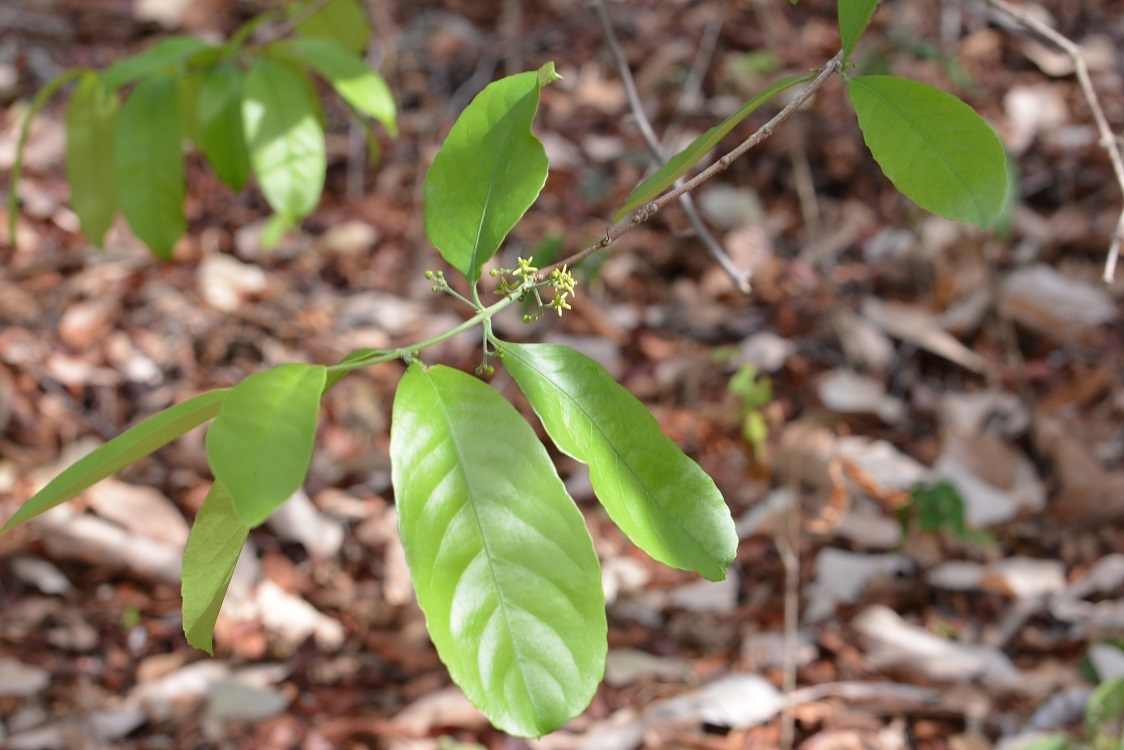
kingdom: Plantae
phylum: Tracheophyta
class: Magnoliopsida
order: Celastrales
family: Celastraceae
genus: Semialarium
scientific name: Semialarium mexicanum
